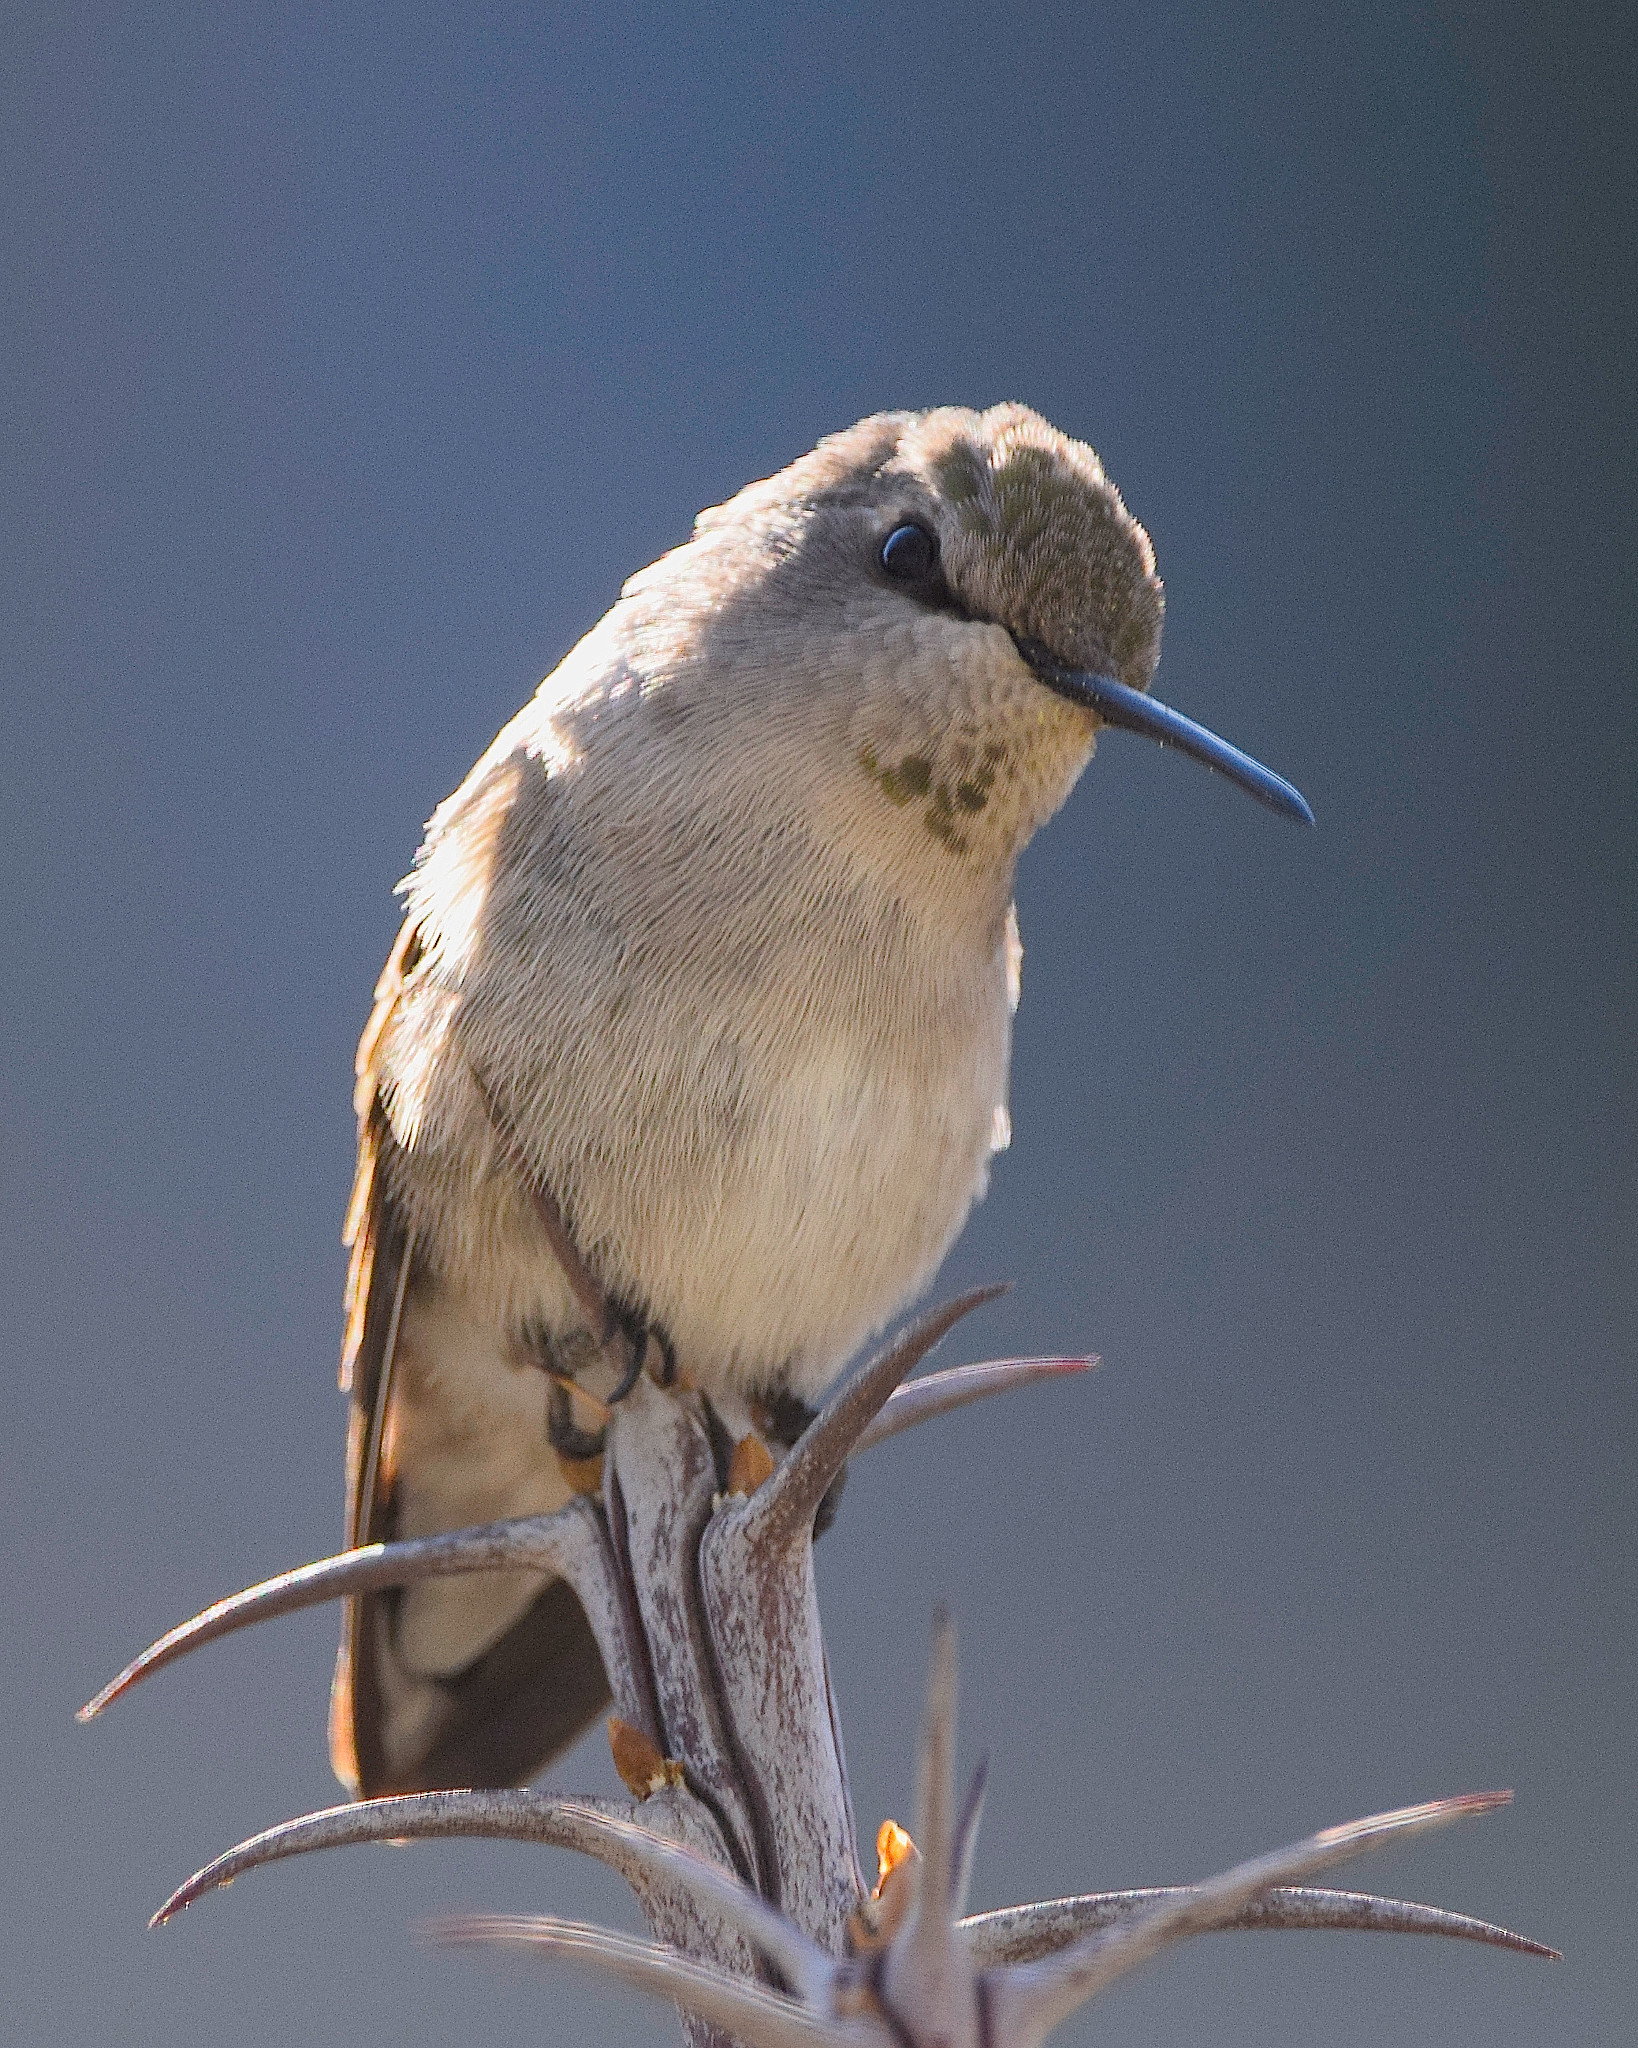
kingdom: Animalia
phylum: Chordata
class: Aves
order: Apodiformes
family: Trochilidae
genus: Calypte
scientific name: Calypte costae
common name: Costa's hummingbird
